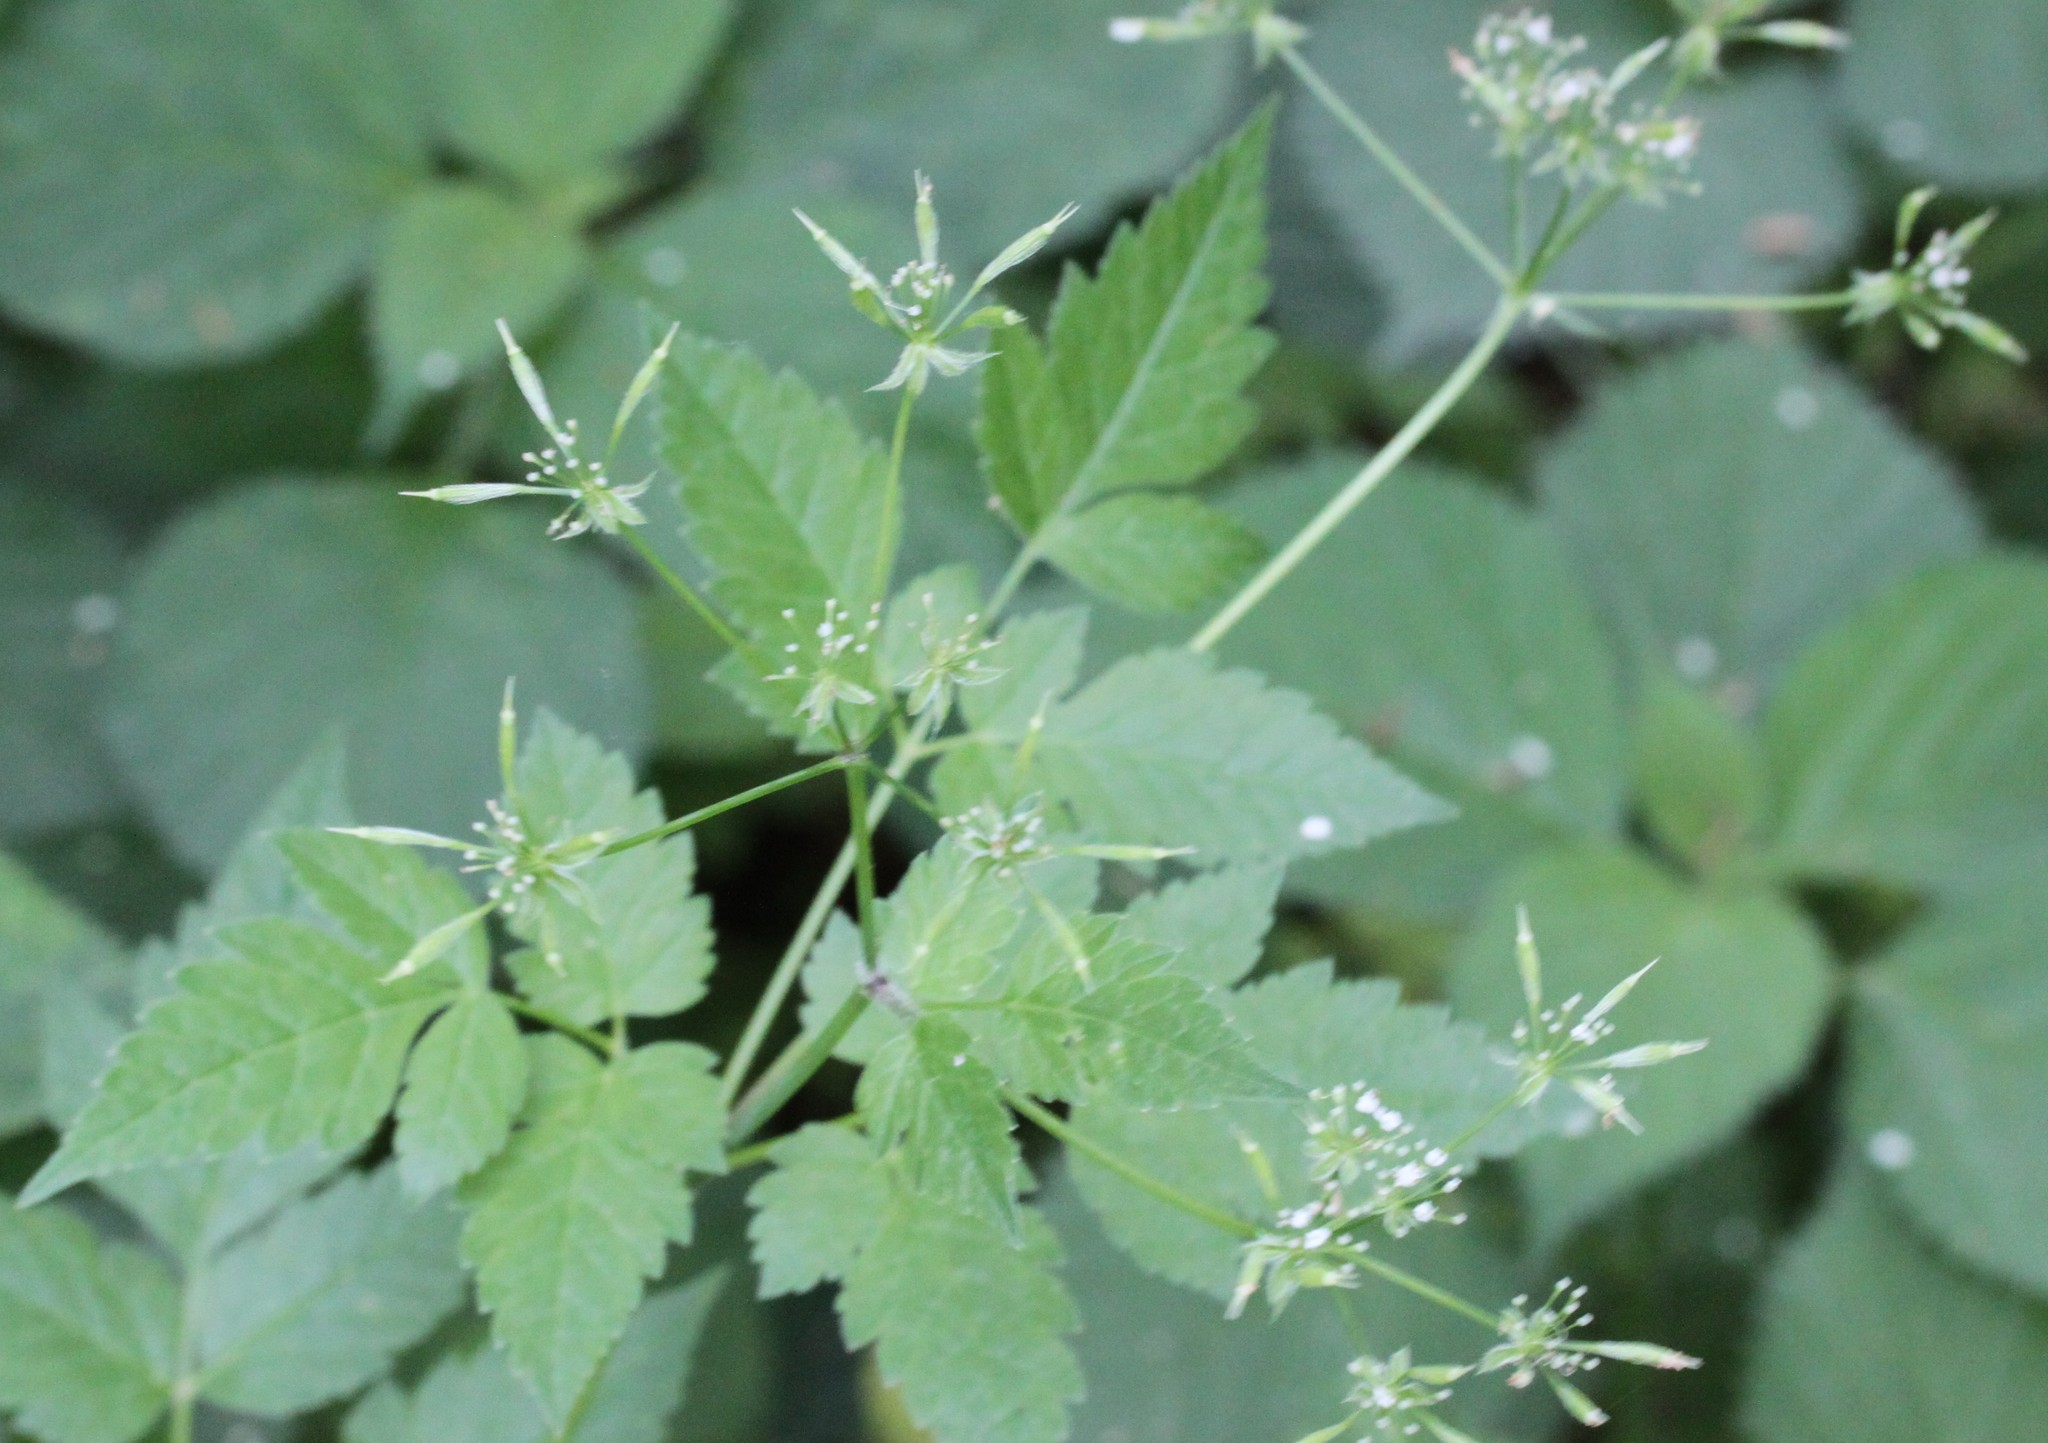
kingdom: Plantae
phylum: Tracheophyta
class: Magnoliopsida
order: Apiales
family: Apiaceae
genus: Osmorhiza
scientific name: Osmorhiza longistylis
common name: Smooth sweet cicely
